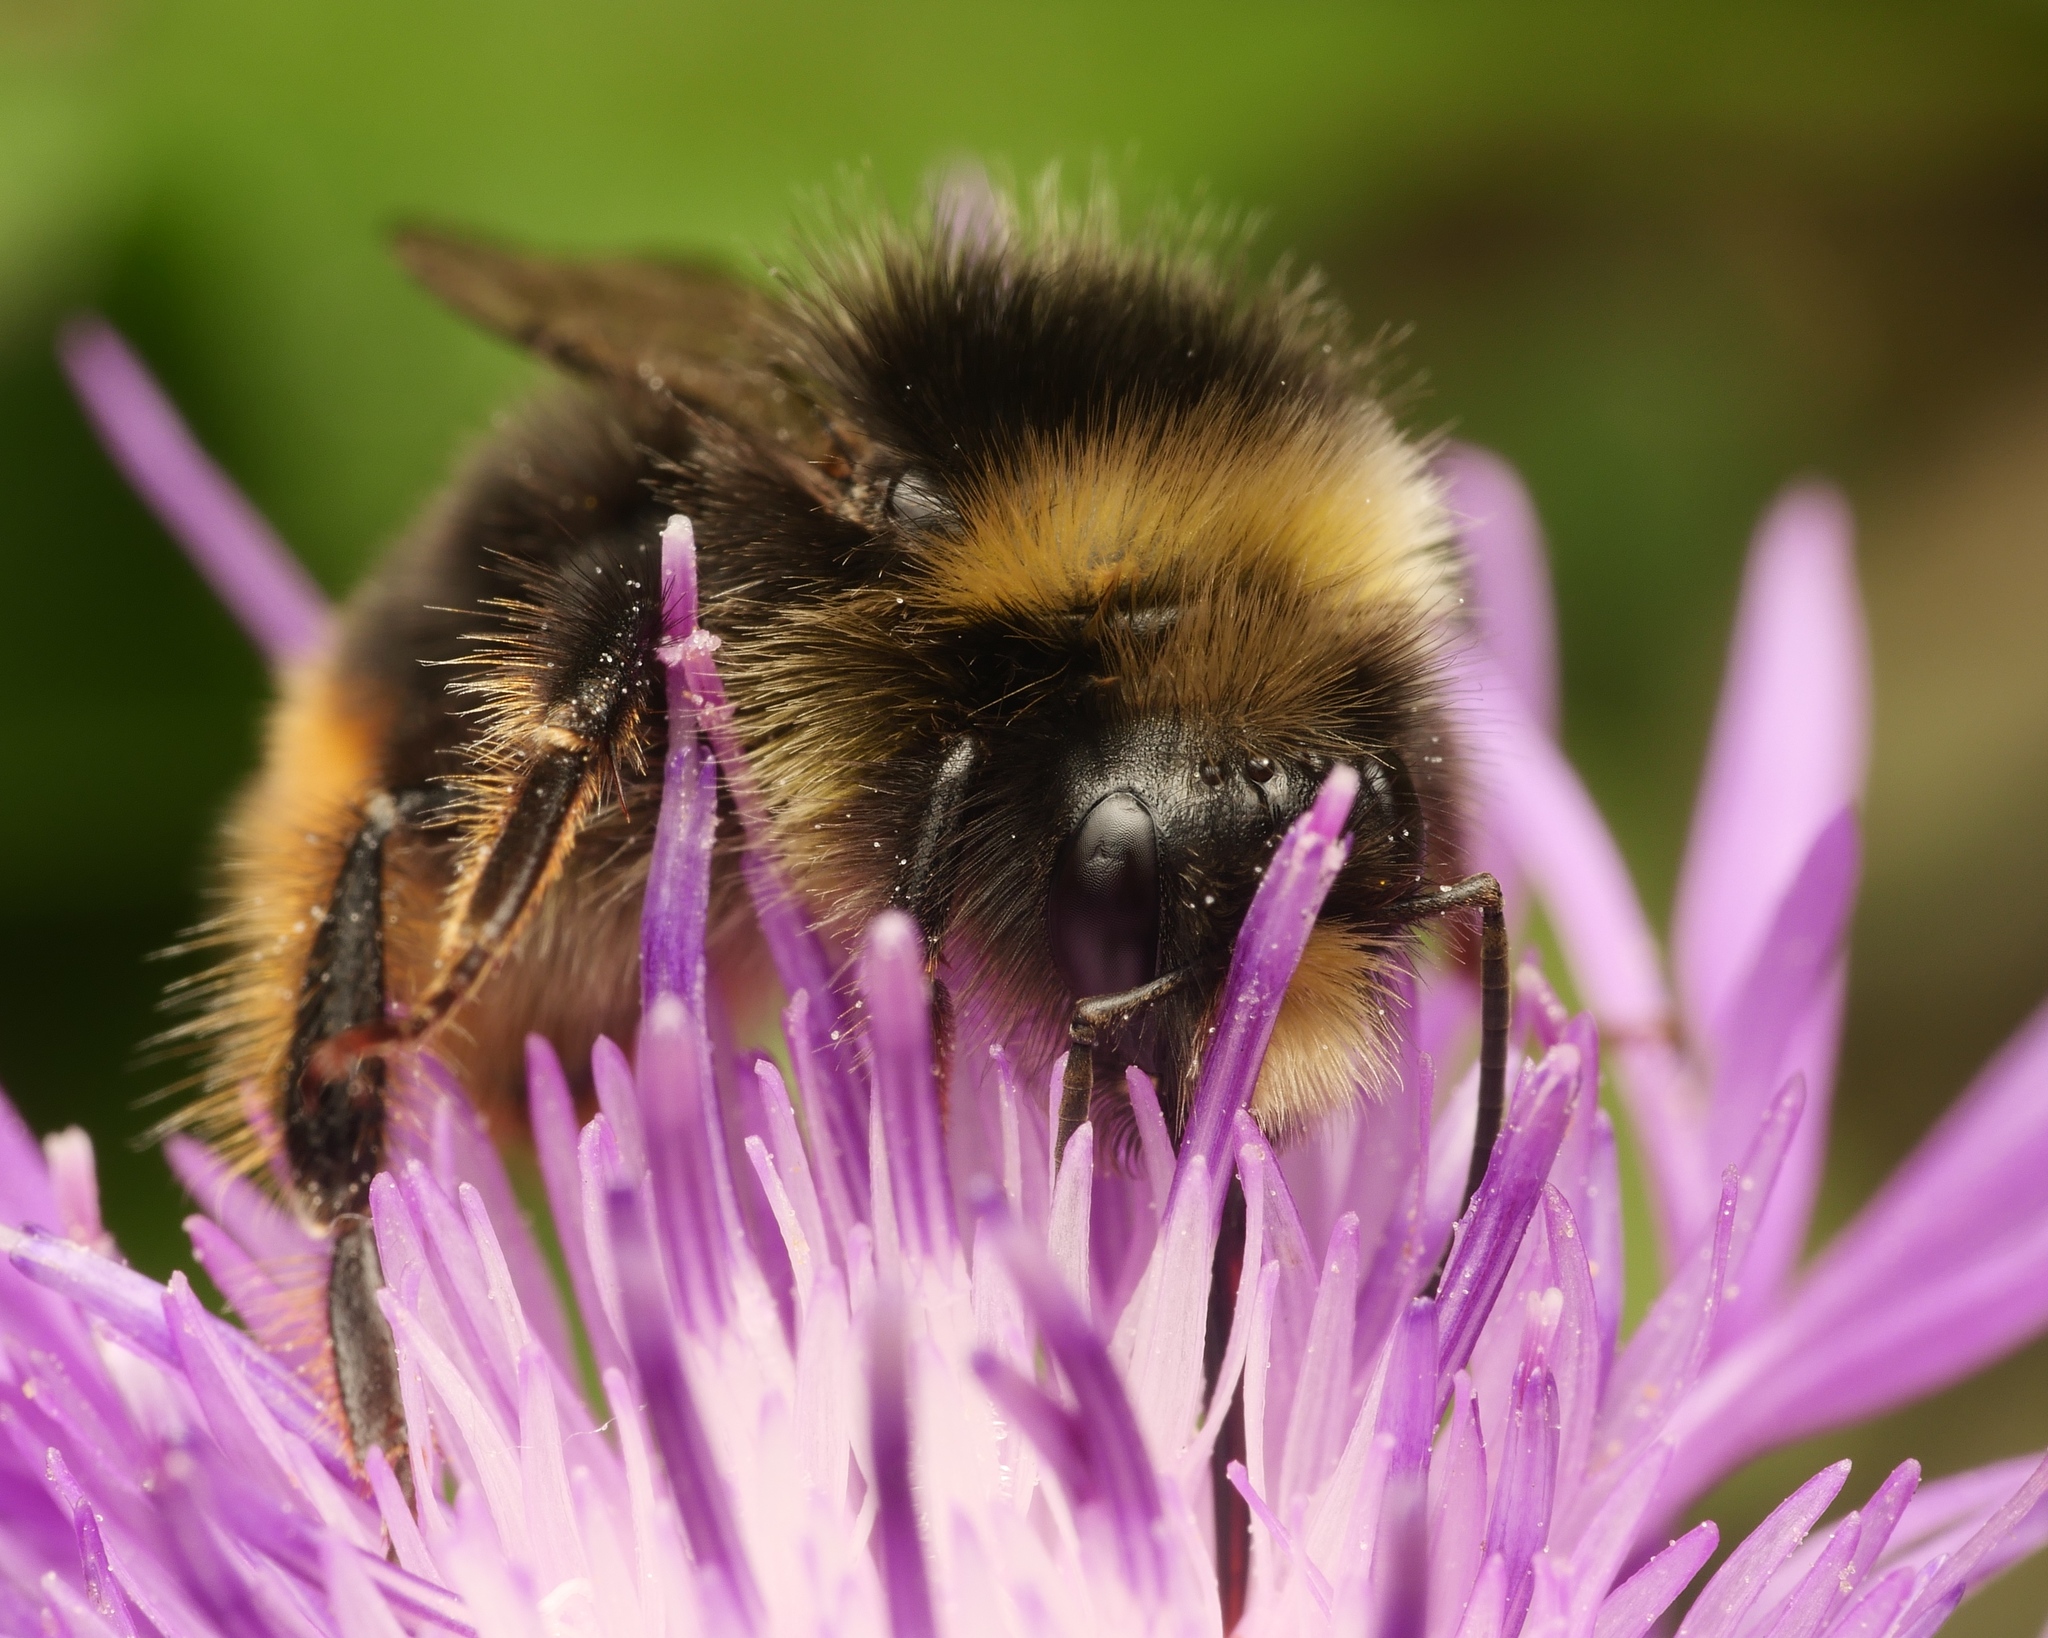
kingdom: Animalia
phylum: Arthropoda
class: Insecta
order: Hymenoptera
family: Apidae
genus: Bombus
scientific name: Bombus lapidarius
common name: Large red-tailed humble-bee
